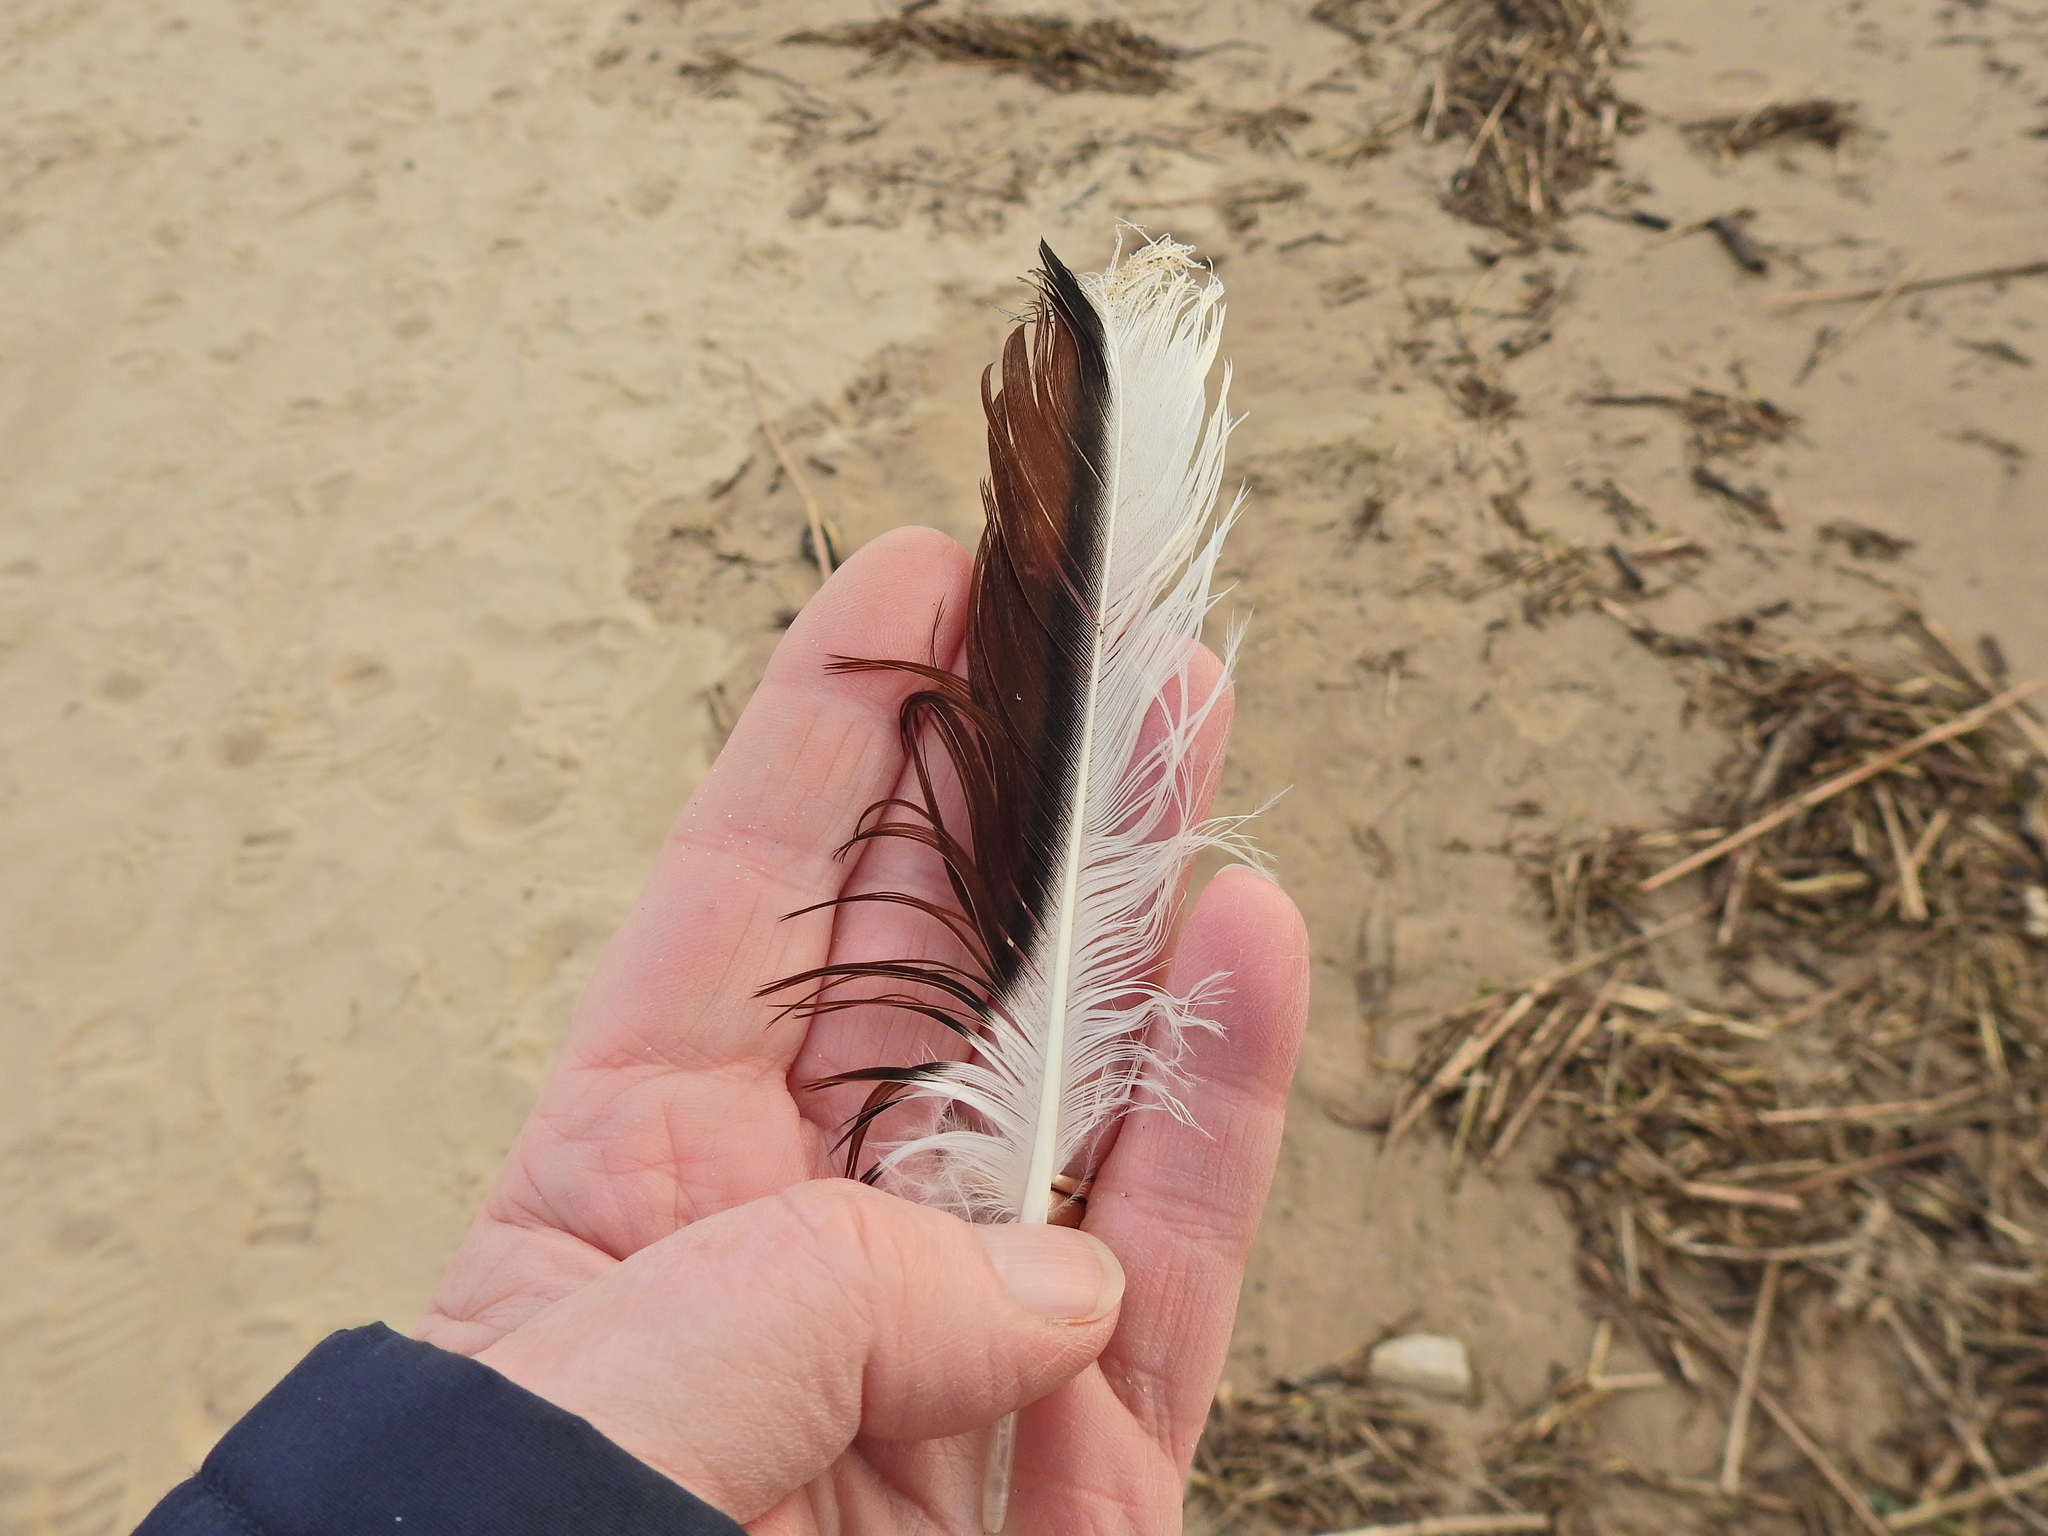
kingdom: Animalia
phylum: Chordata
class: Aves
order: Anseriformes
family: Anatidae
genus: Tadorna
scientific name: Tadorna tadorna
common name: Common shelduck
